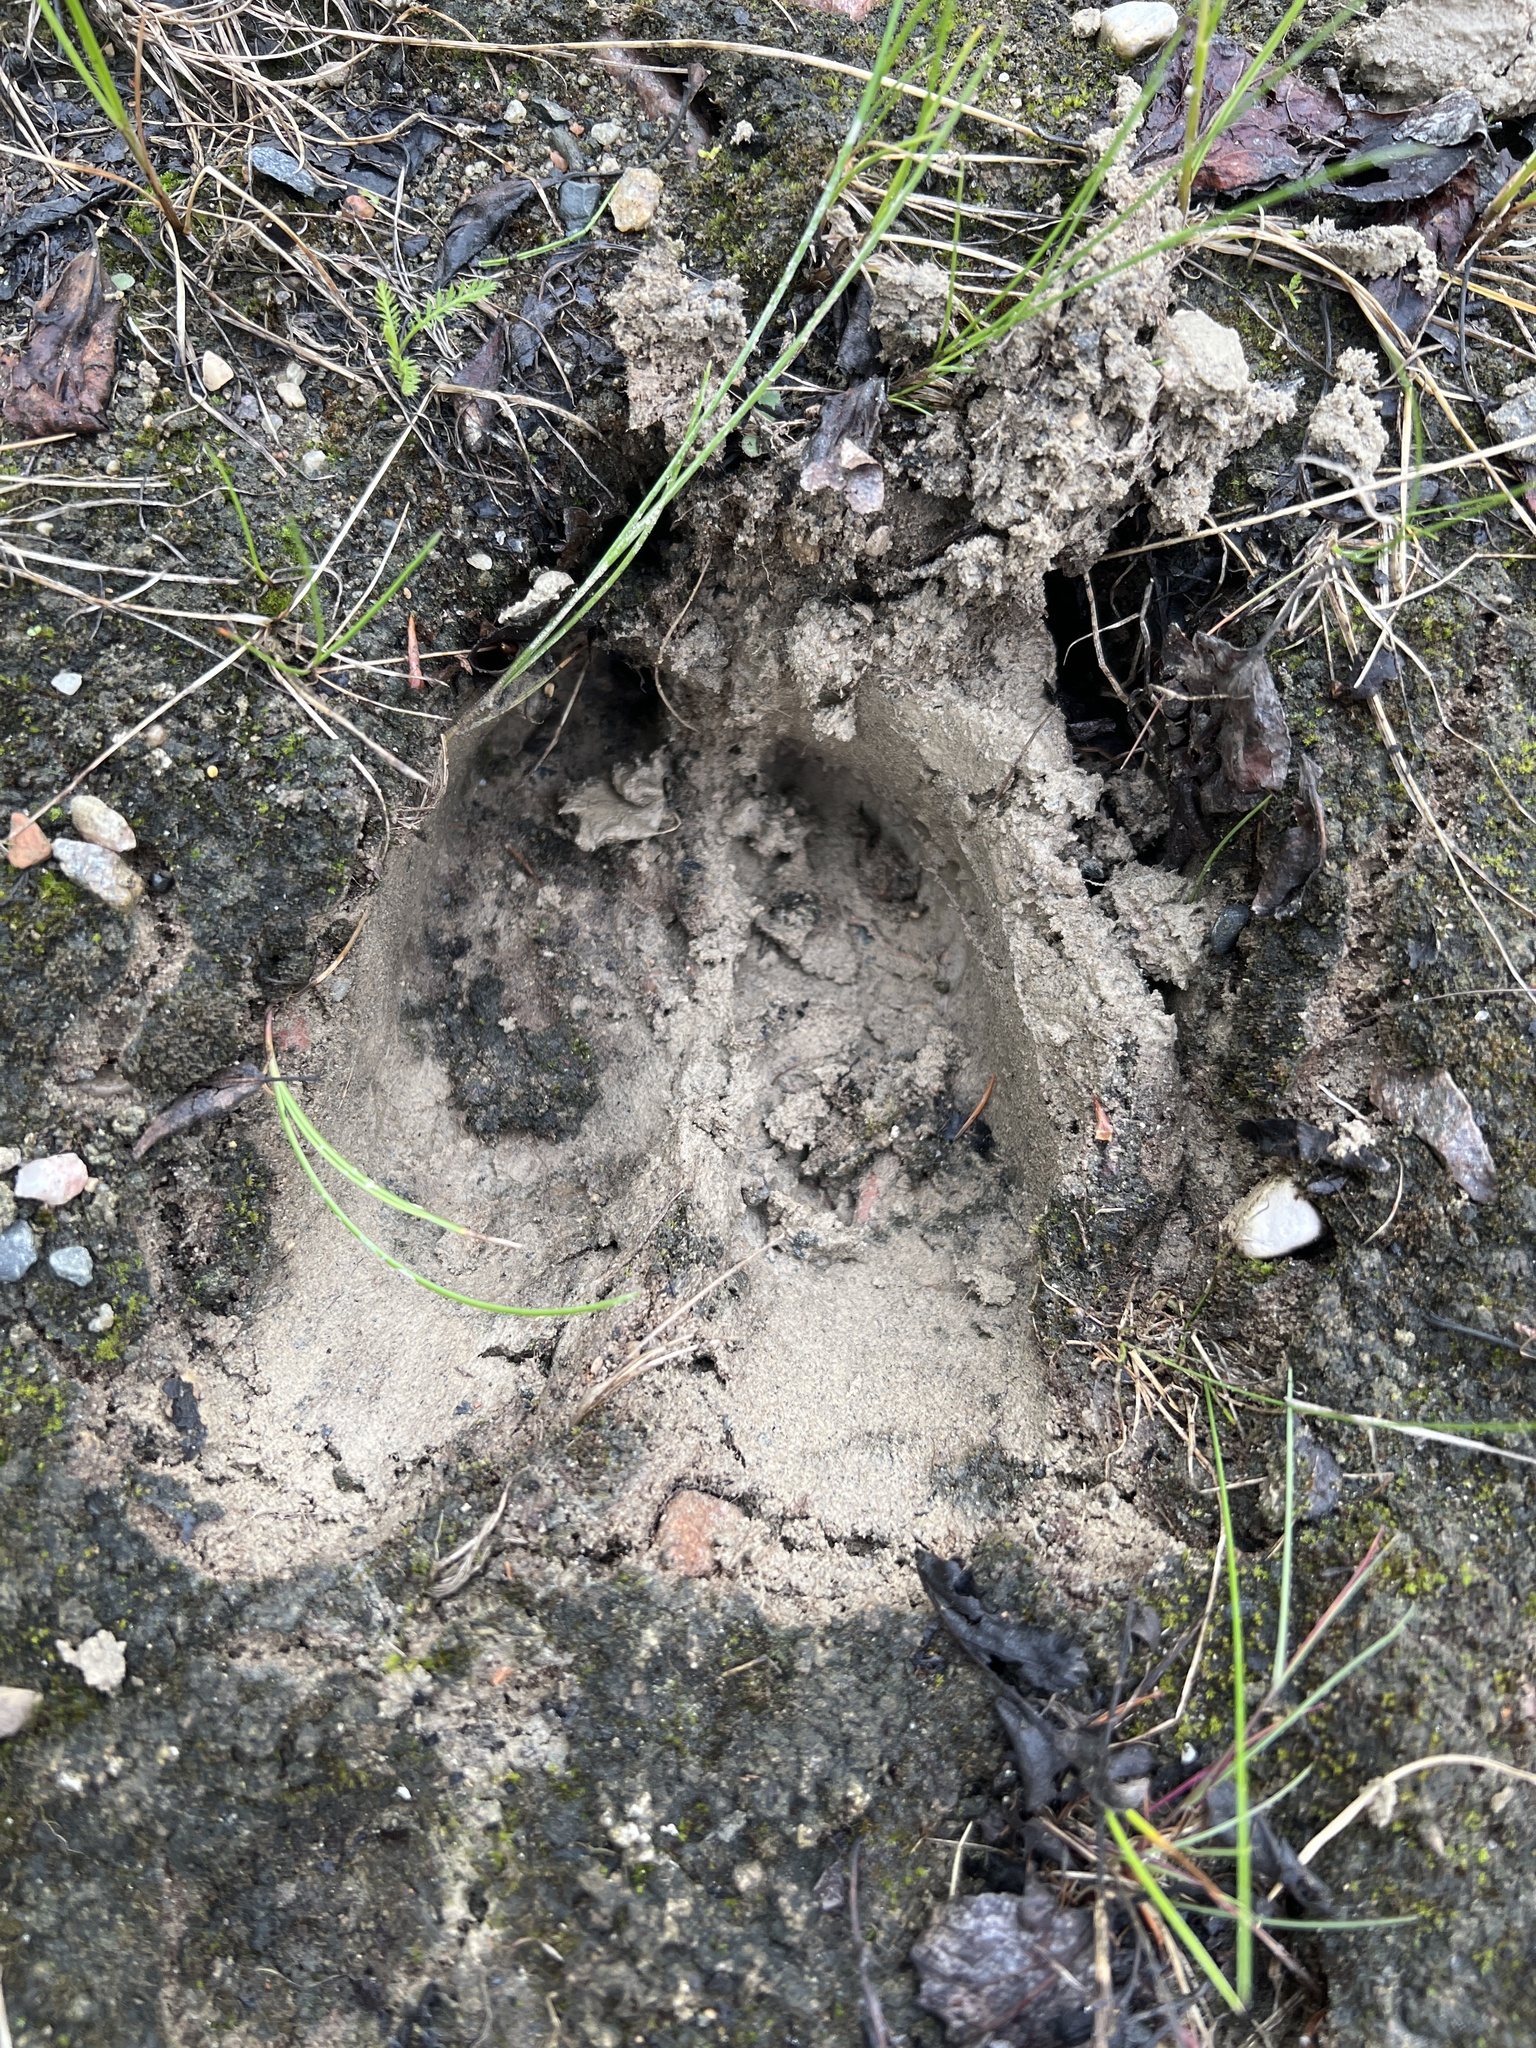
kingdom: Animalia
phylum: Chordata
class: Mammalia
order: Artiodactyla
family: Cervidae
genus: Alces
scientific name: Alces alces
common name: Moose
